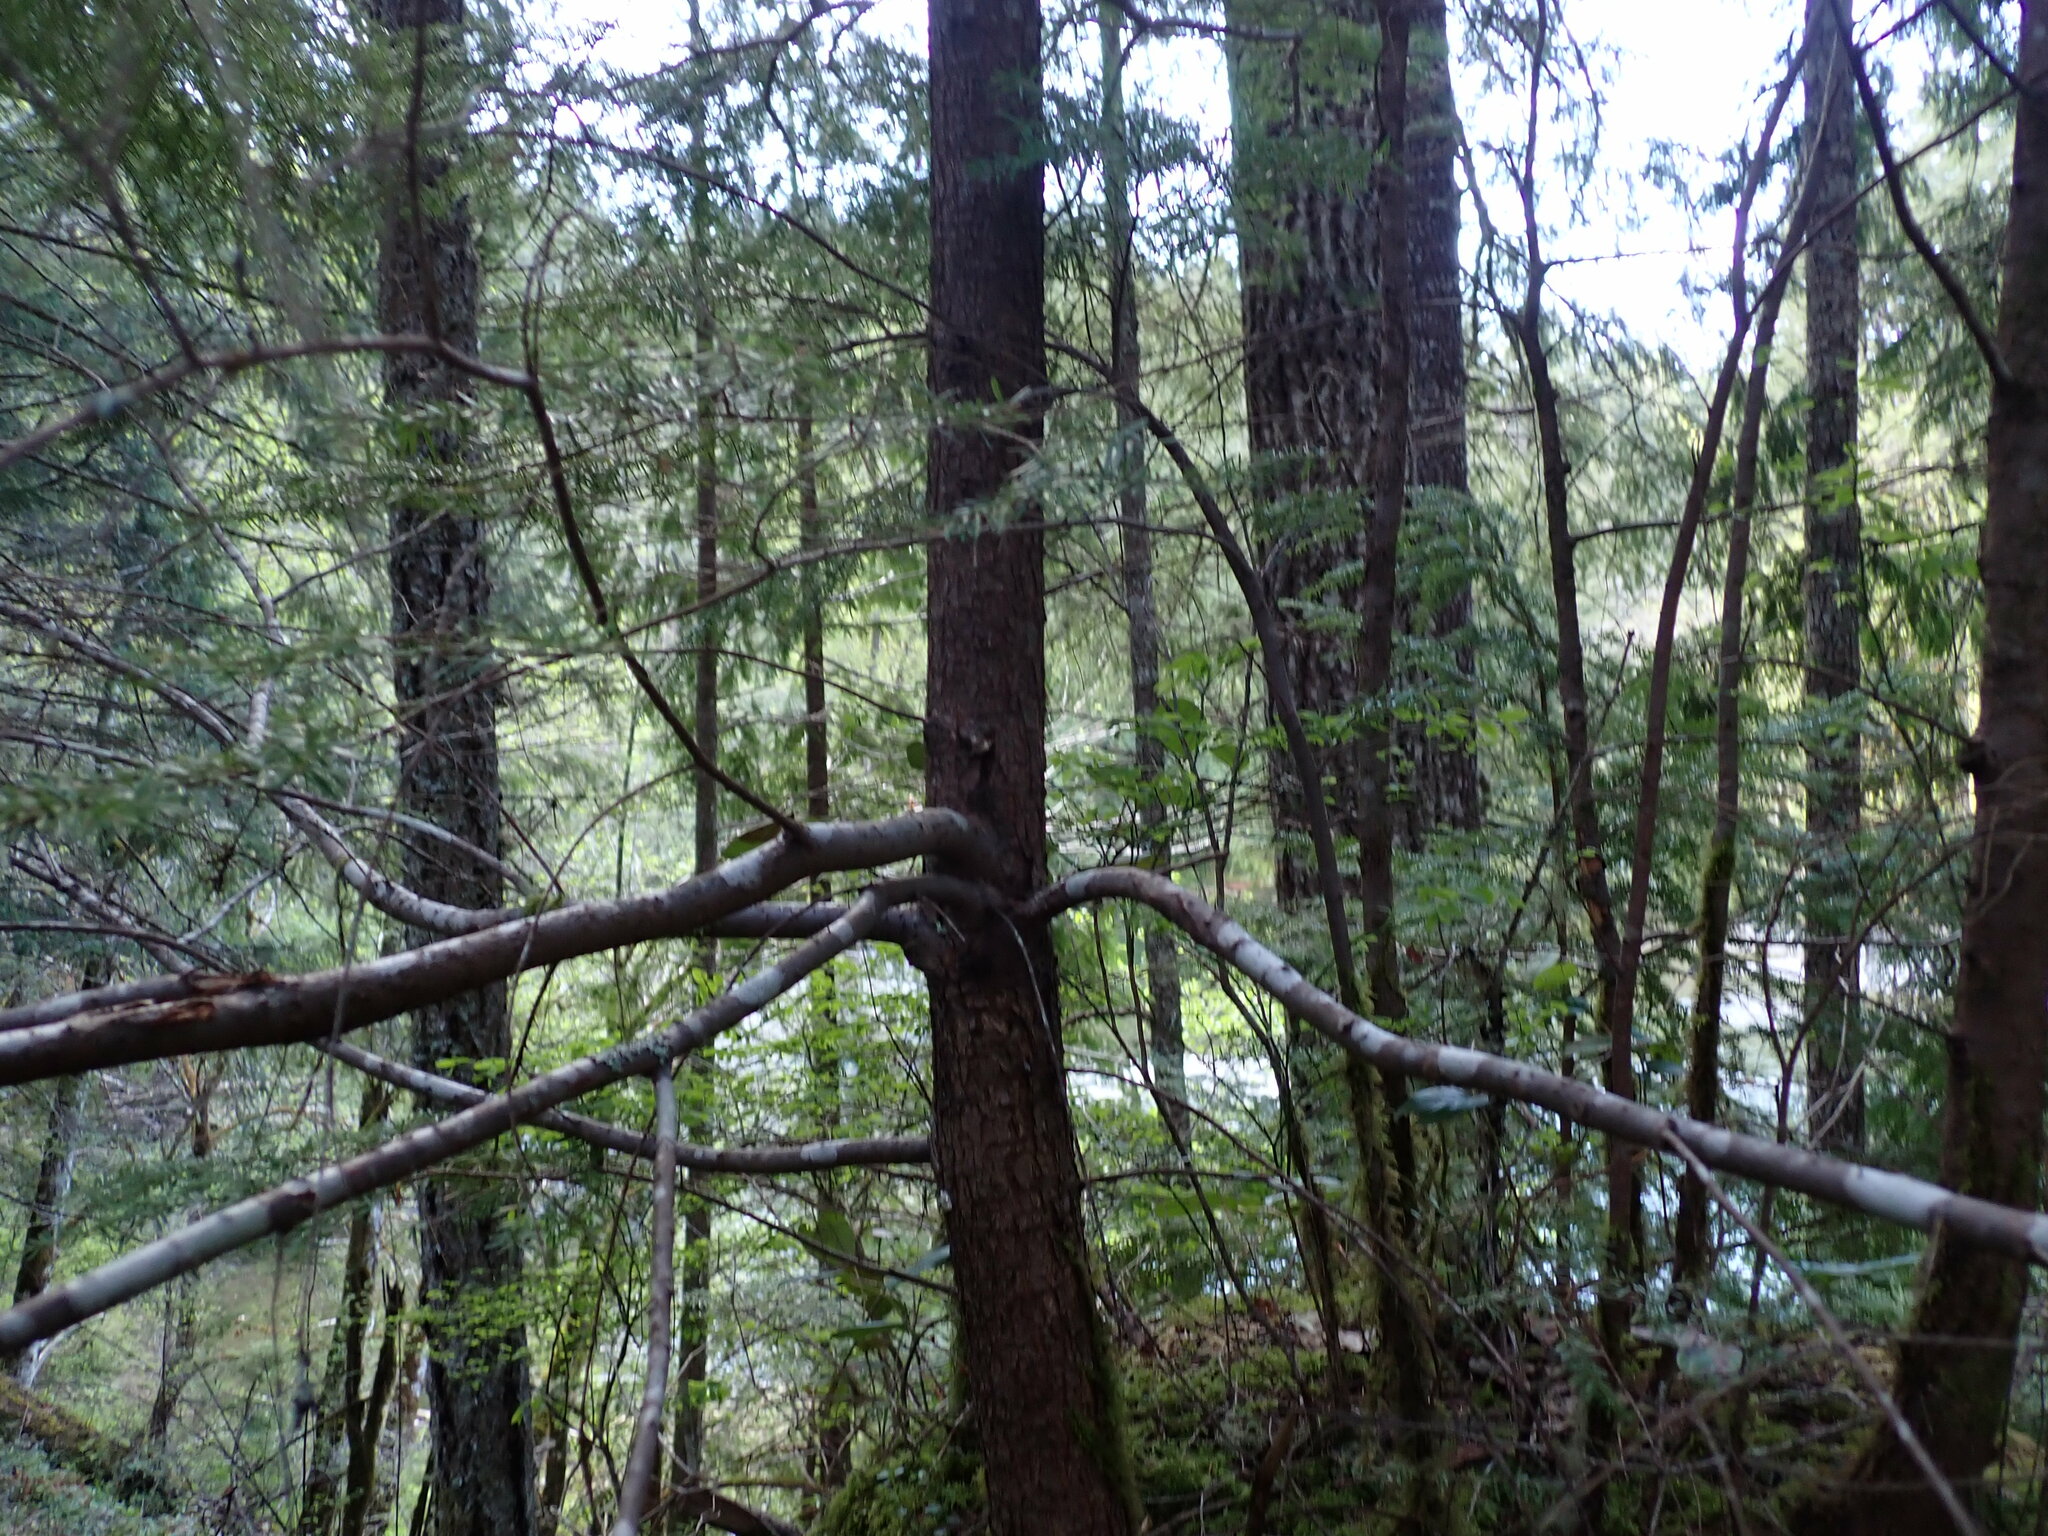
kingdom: Plantae
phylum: Tracheophyta
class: Pinopsida
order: Pinales
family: Pinaceae
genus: Tsuga
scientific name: Tsuga heterophylla
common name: Western hemlock
